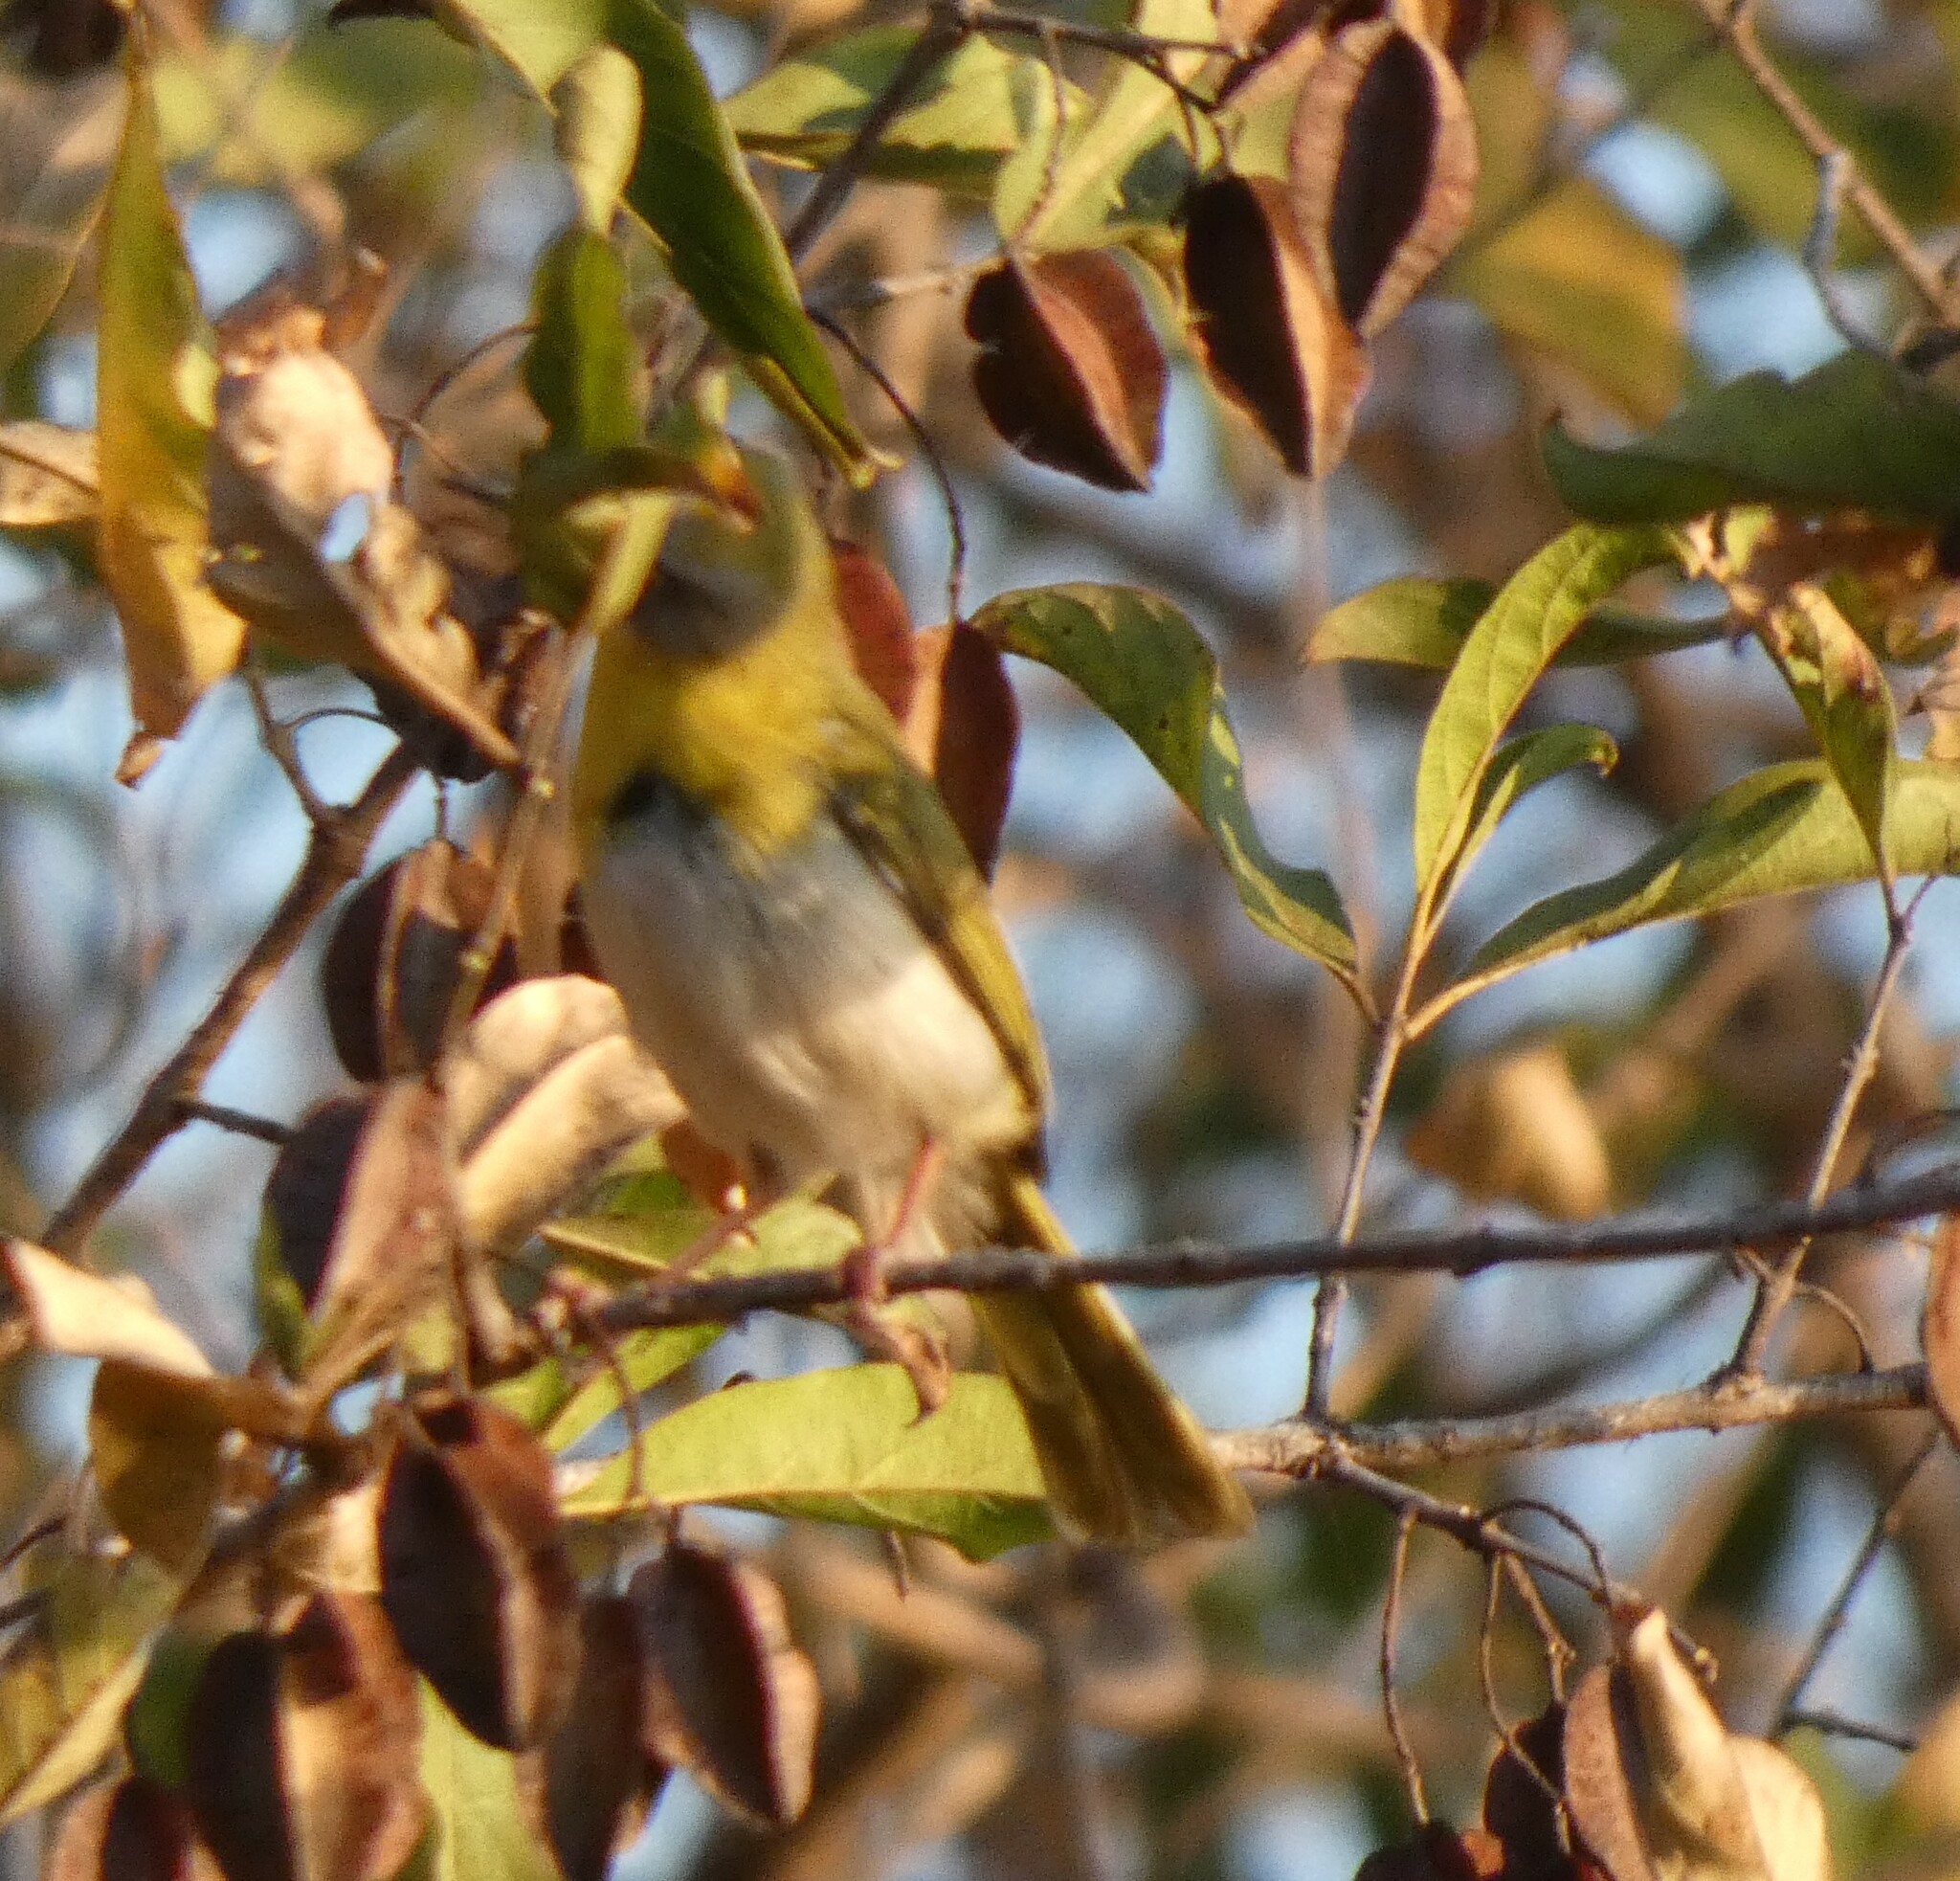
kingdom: Animalia
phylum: Chordata
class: Aves
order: Passeriformes
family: Cisticolidae
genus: Apalis
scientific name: Apalis flavida
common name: Yellow-breasted apalis
